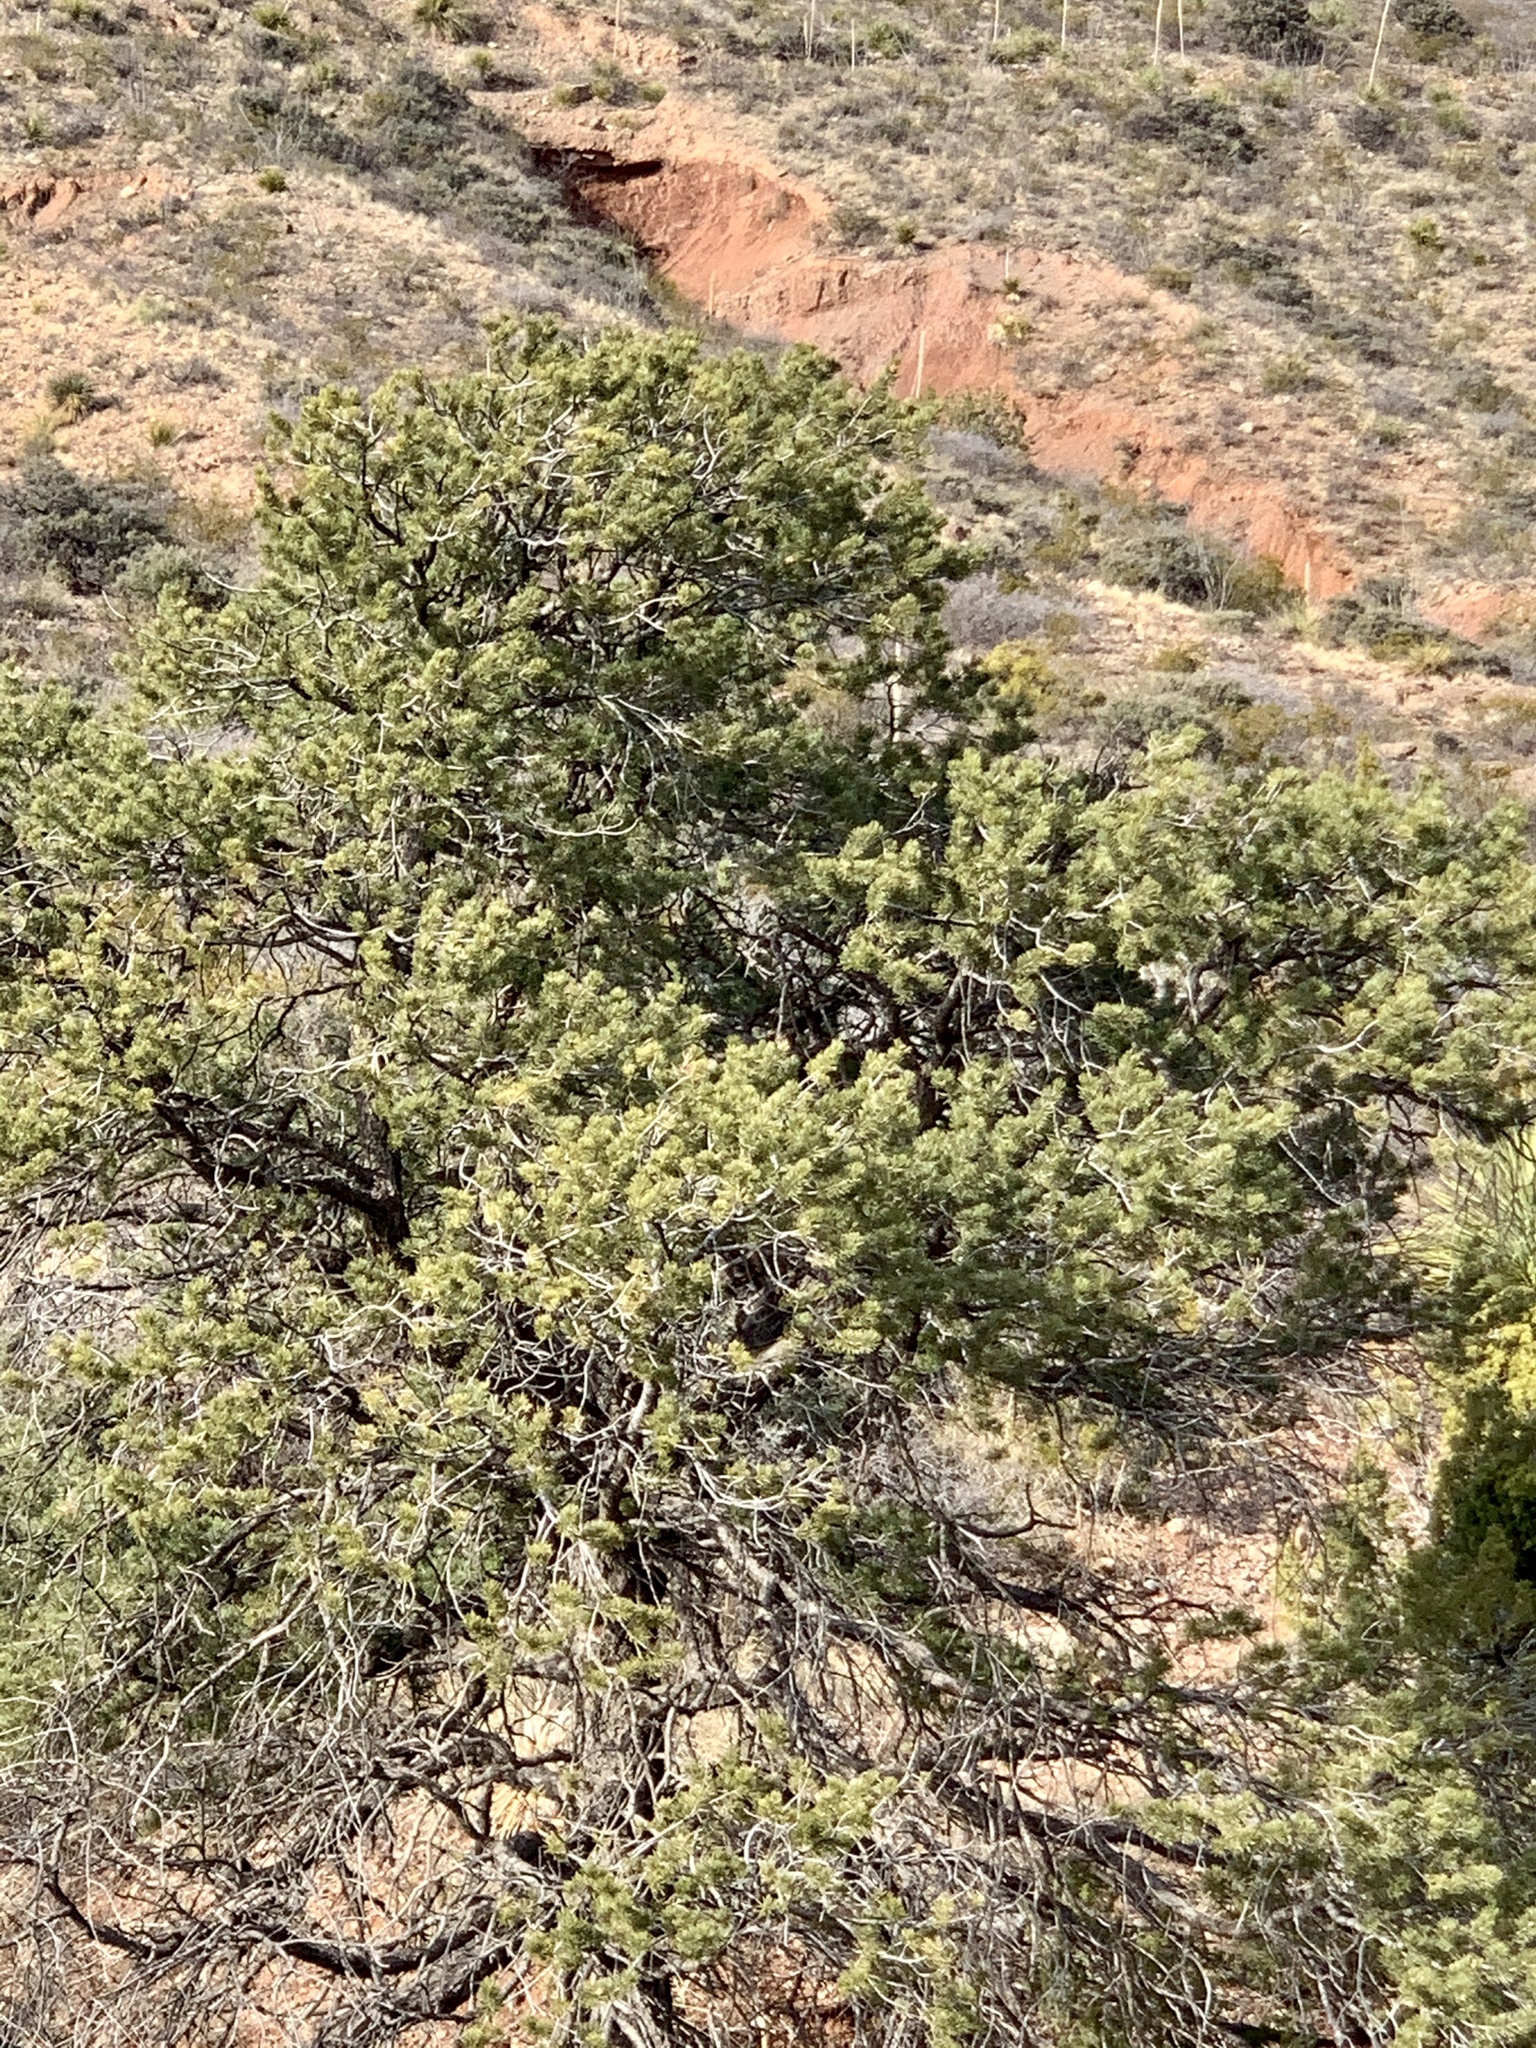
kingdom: Plantae
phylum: Tracheophyta
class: Pinopsida
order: Pinales
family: Pinaceae
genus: Pinus
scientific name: Pinus edulis
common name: Colorado pinyon
